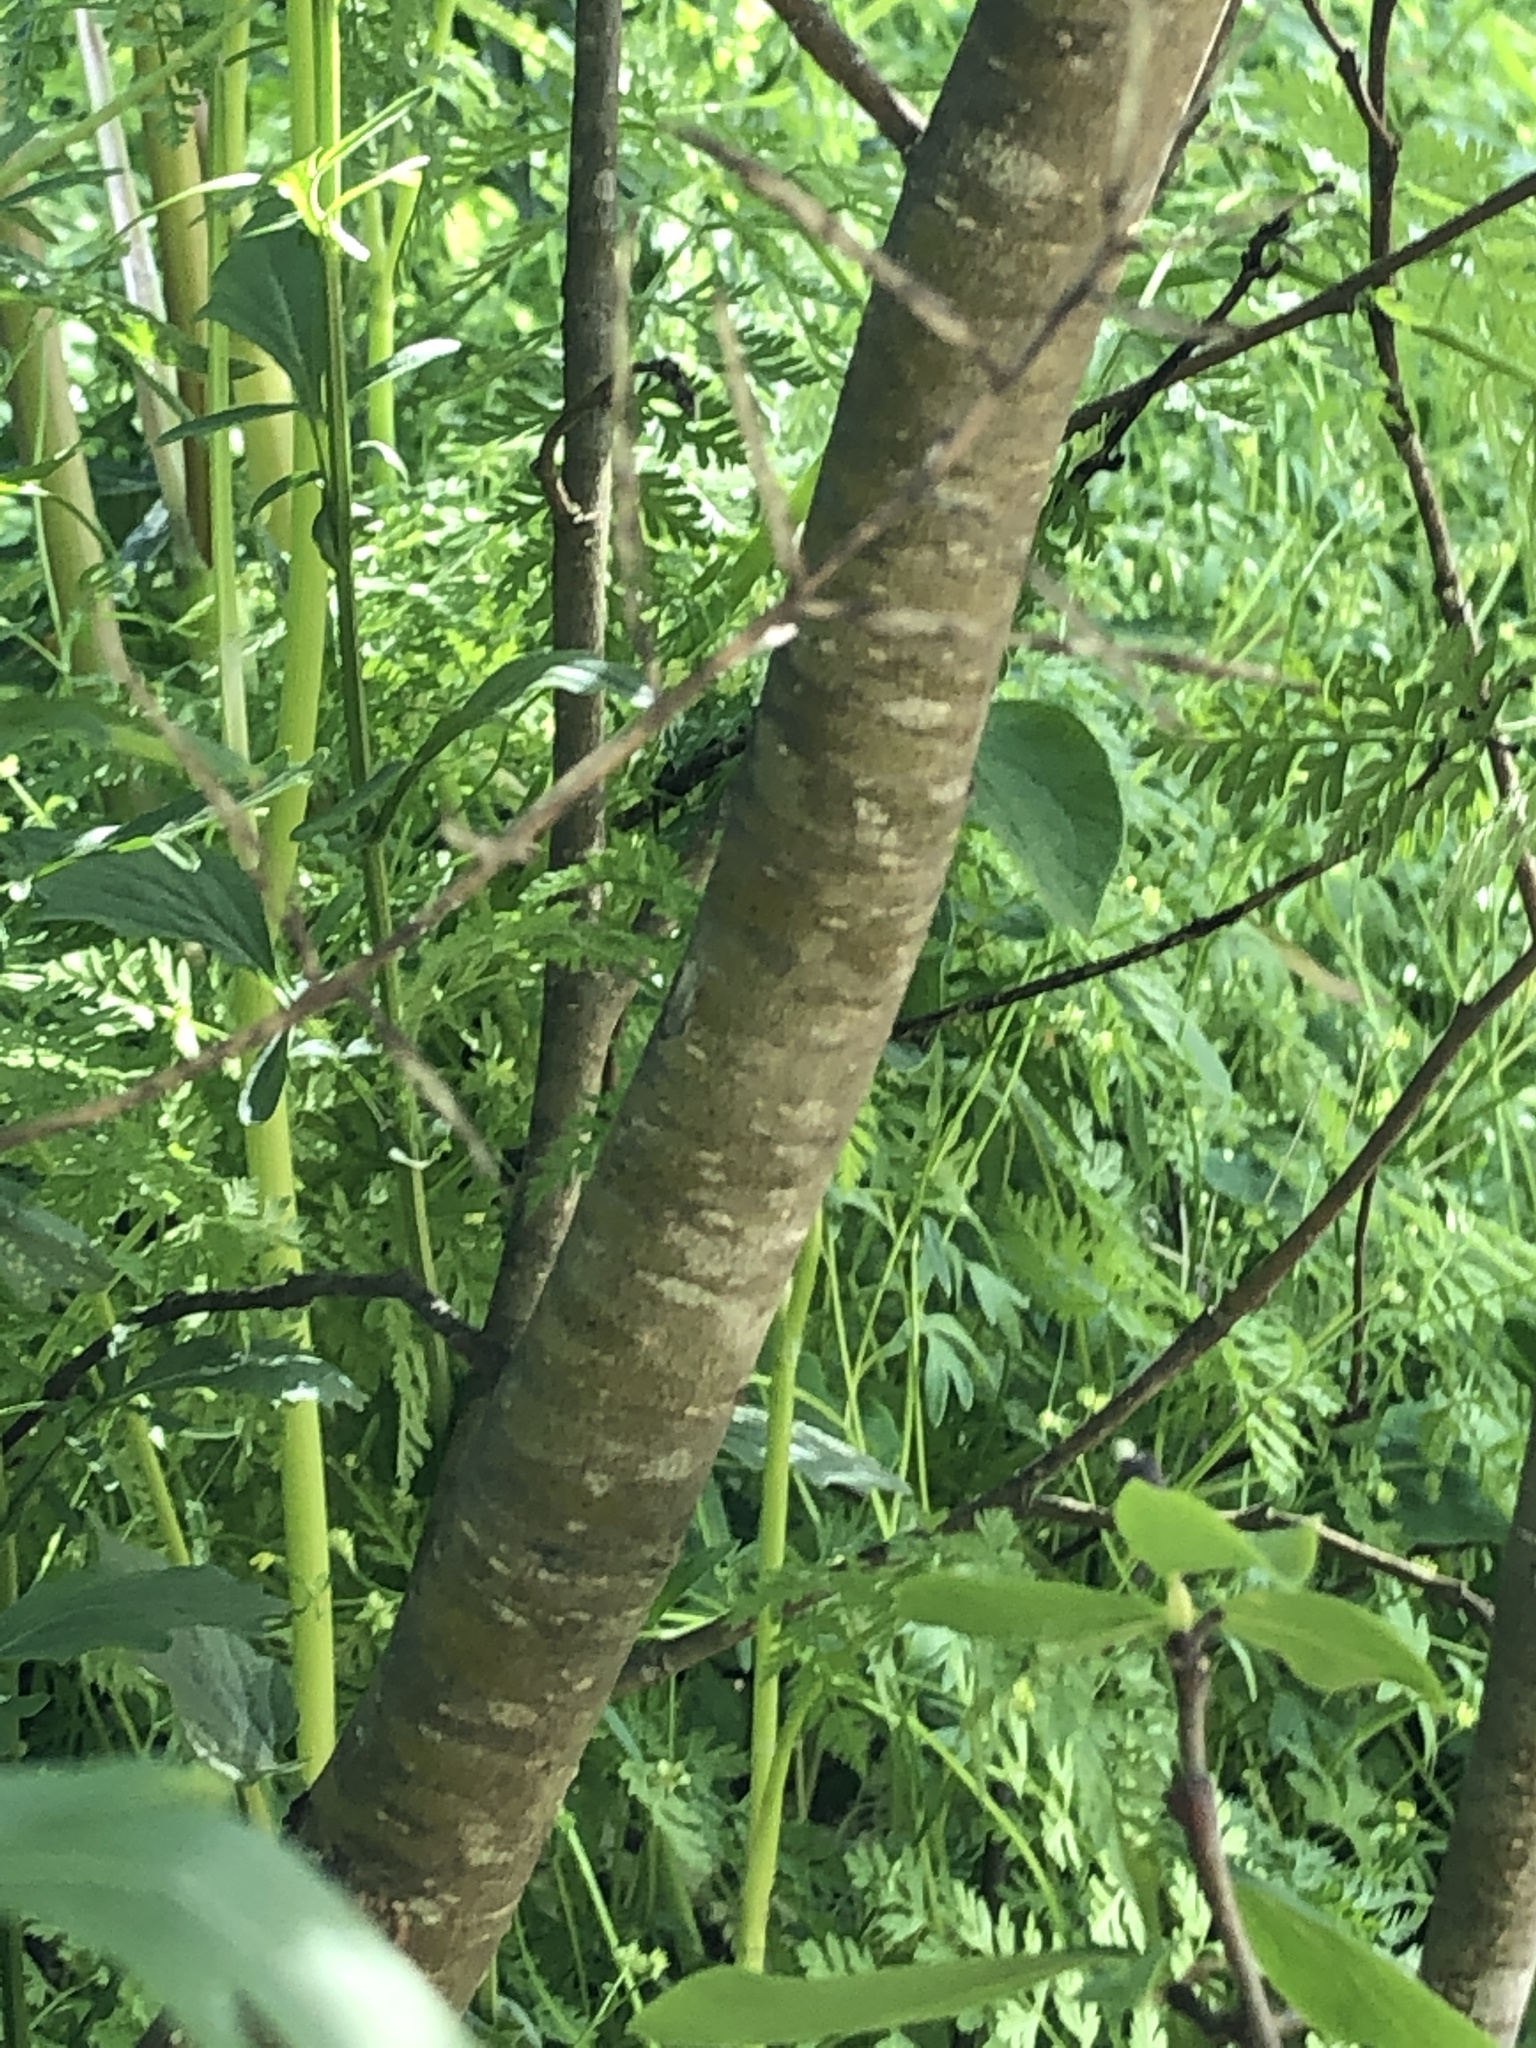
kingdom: Plantae
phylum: Tracheophyta
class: Magnoliopsida
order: Malvales
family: Thymelaeaceae
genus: Dirca
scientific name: Dirca occidentalis
